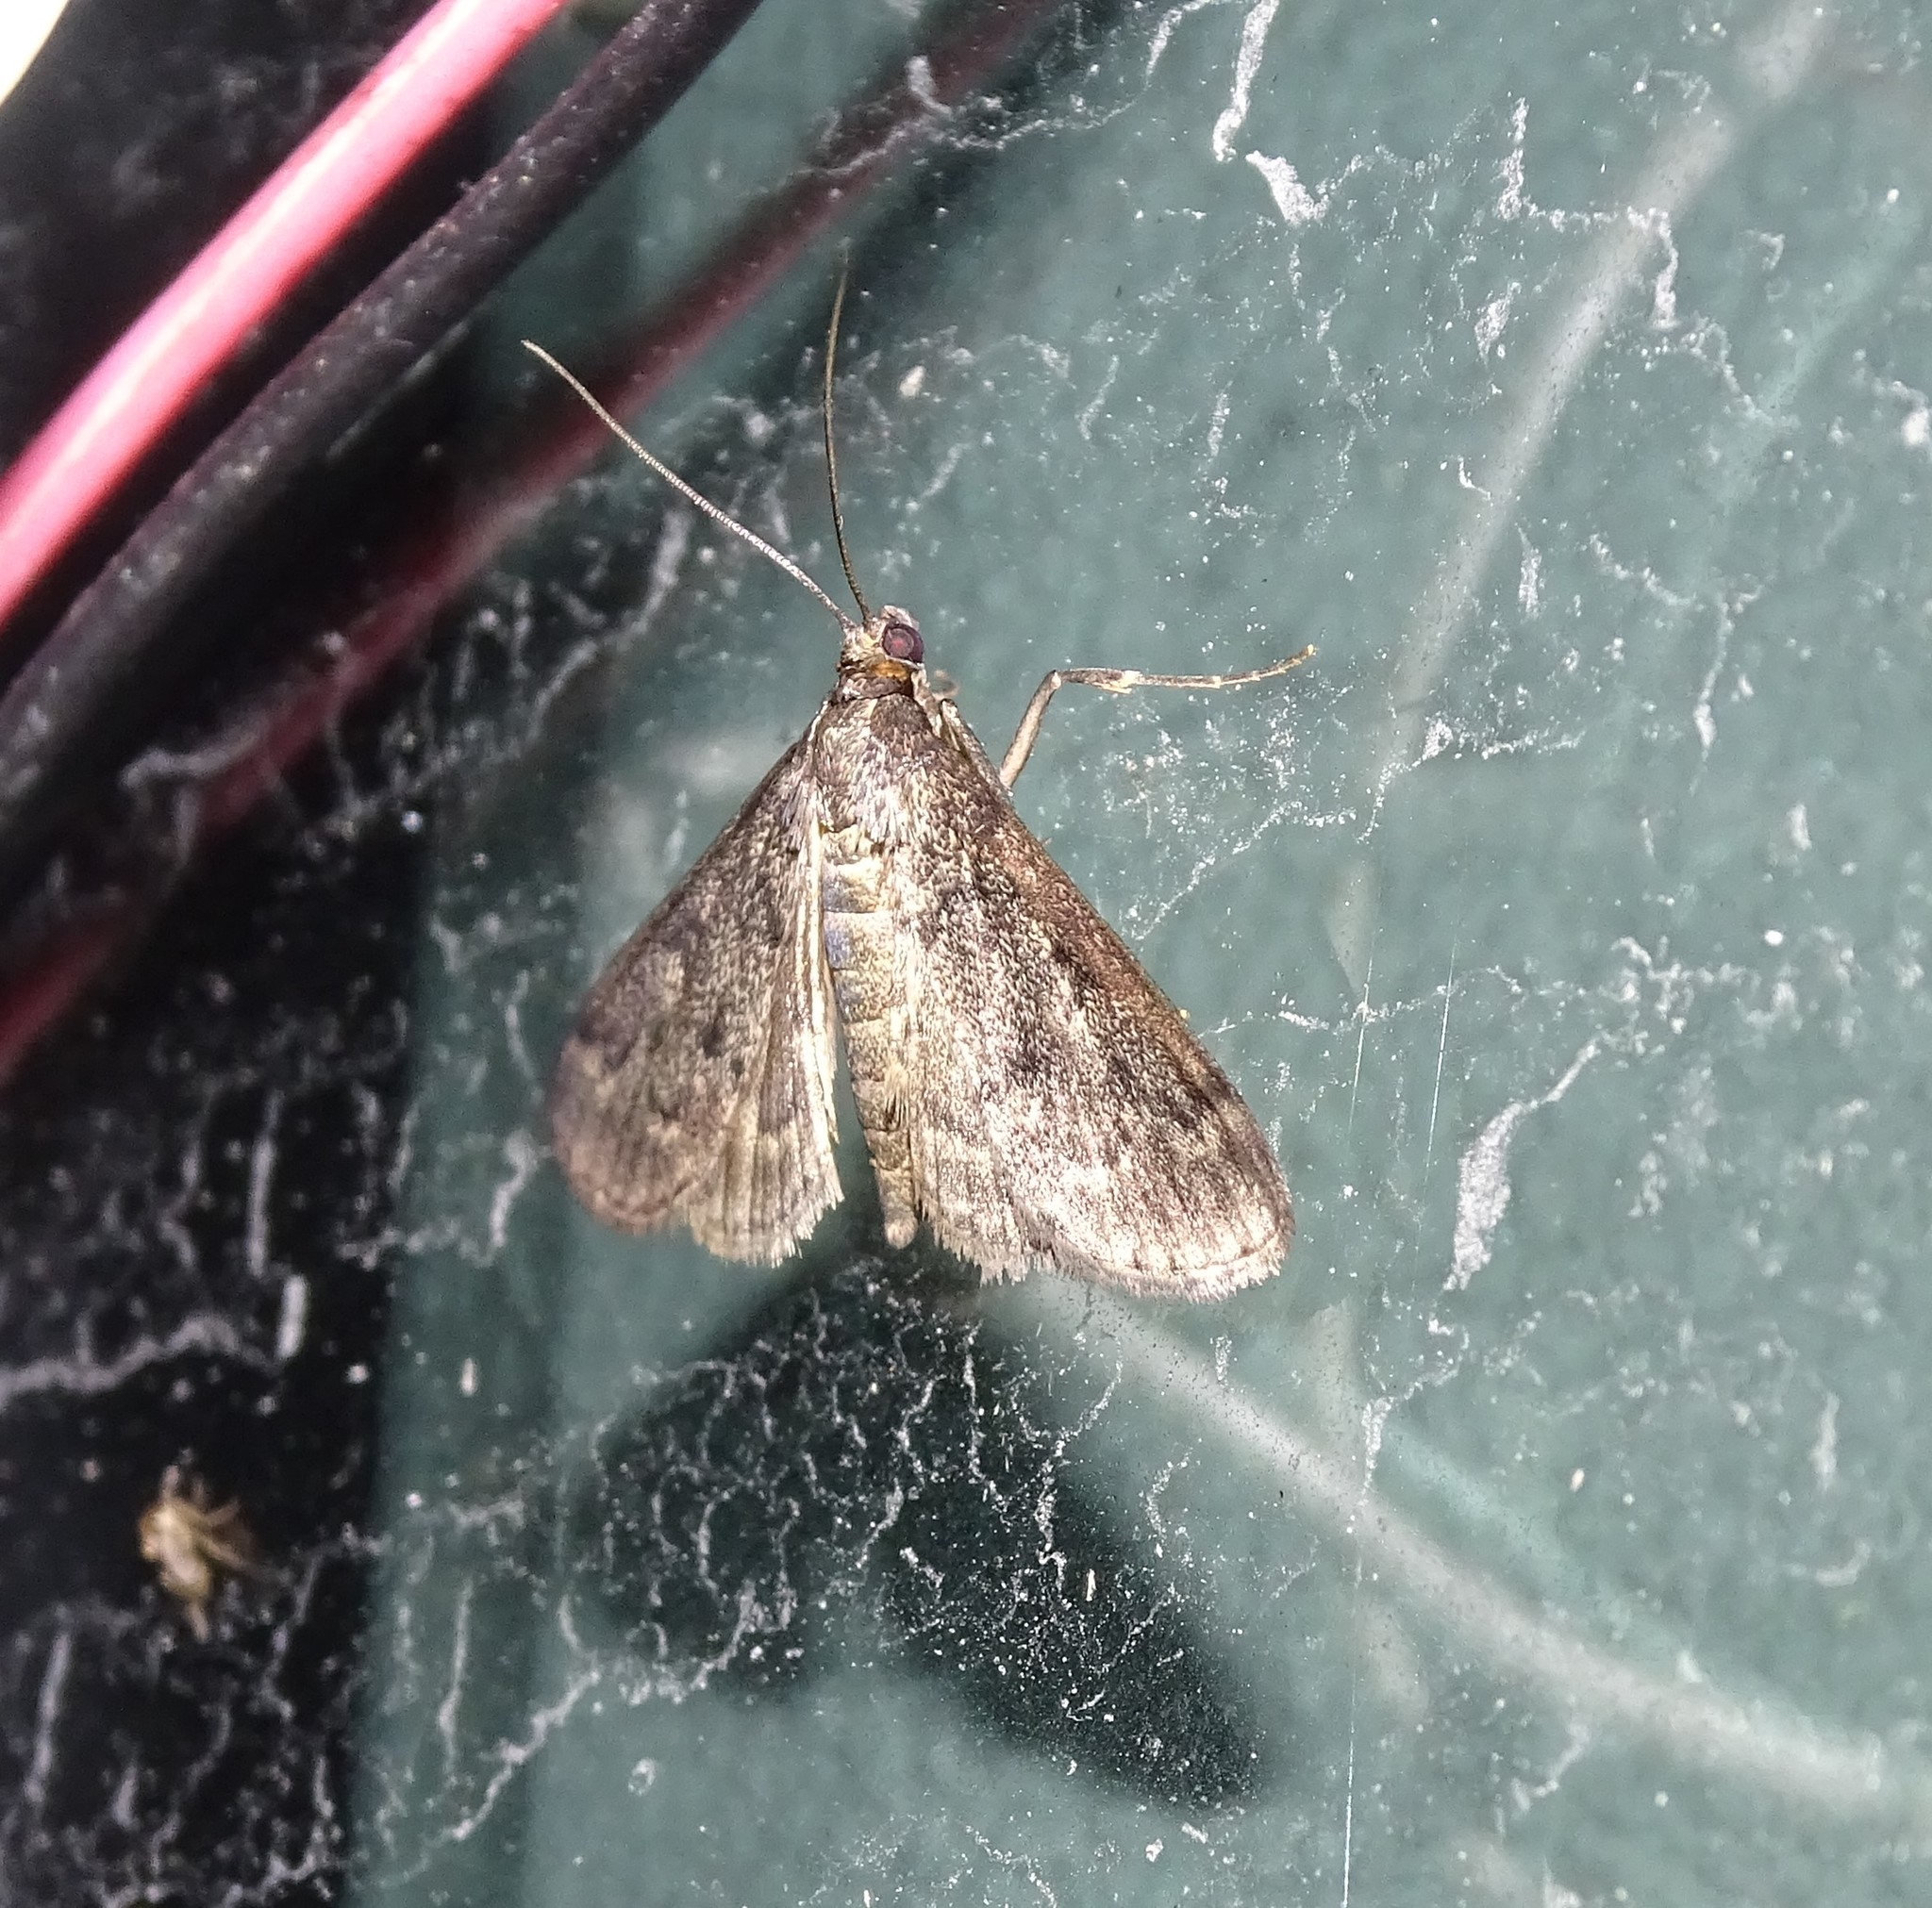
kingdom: Animalia
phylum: Arthropoda
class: Insecta
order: Lepidoptera
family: Crambidae
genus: Herpetogramma
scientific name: Herpetogramma phaeopteralis
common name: Dusky herpetogramma moth
